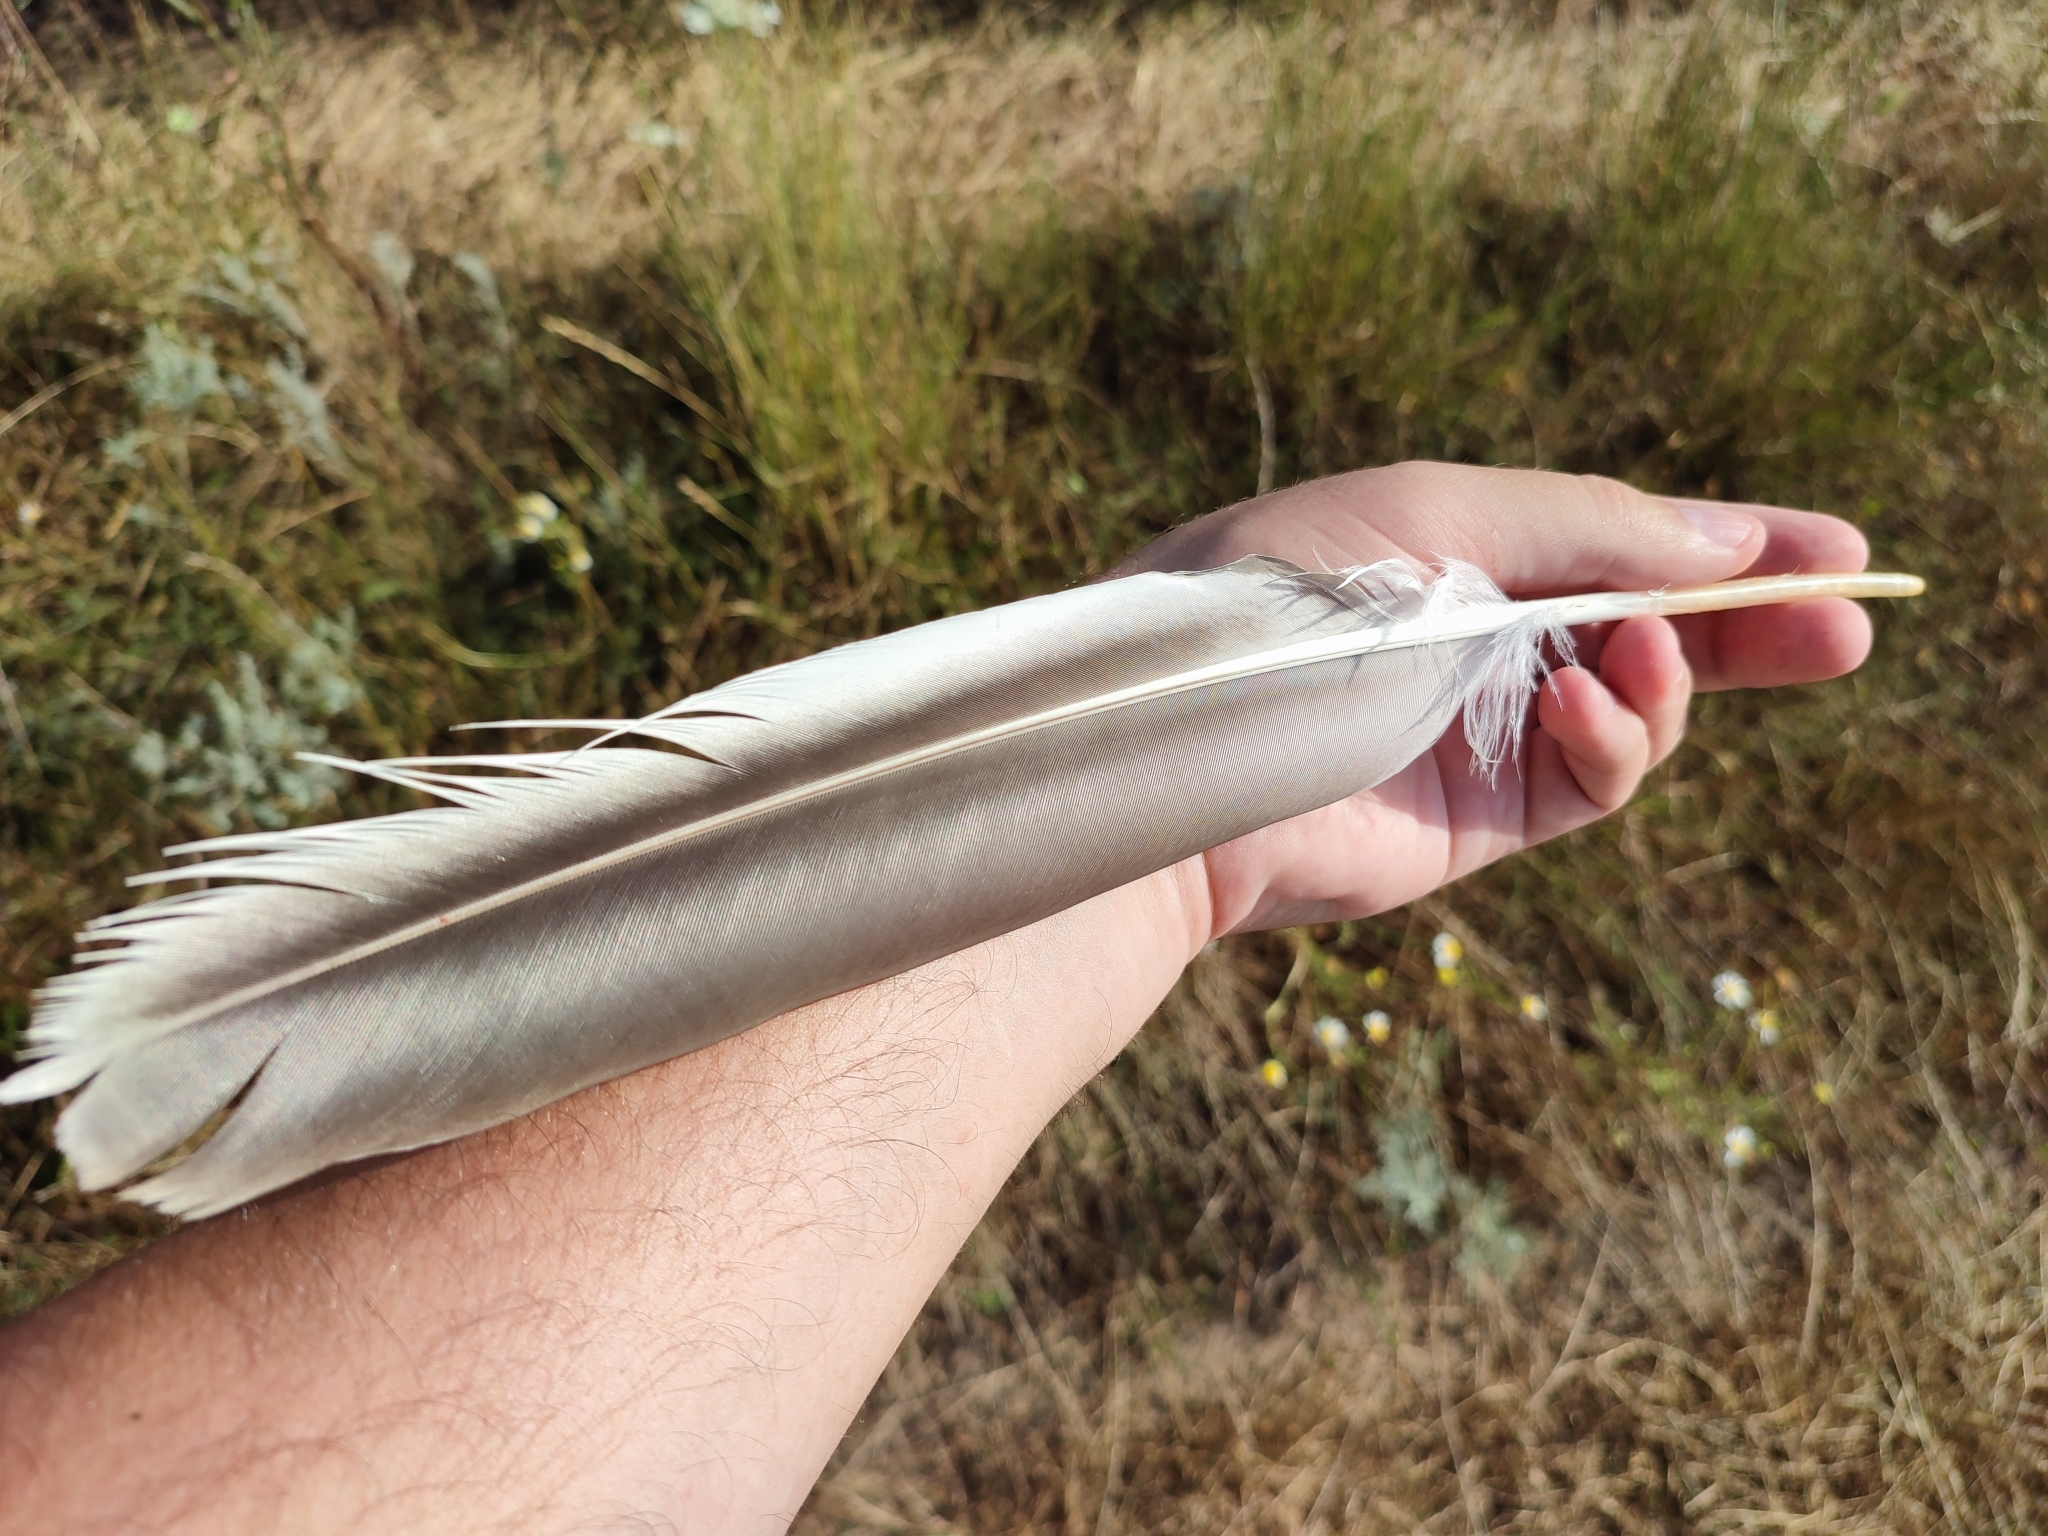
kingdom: Animalia
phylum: Chordata
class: Aves
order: Pelecaniformes
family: Pelecanidae
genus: Pelecanus
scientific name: Pelecanus onocrotalus
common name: Great white pelican
